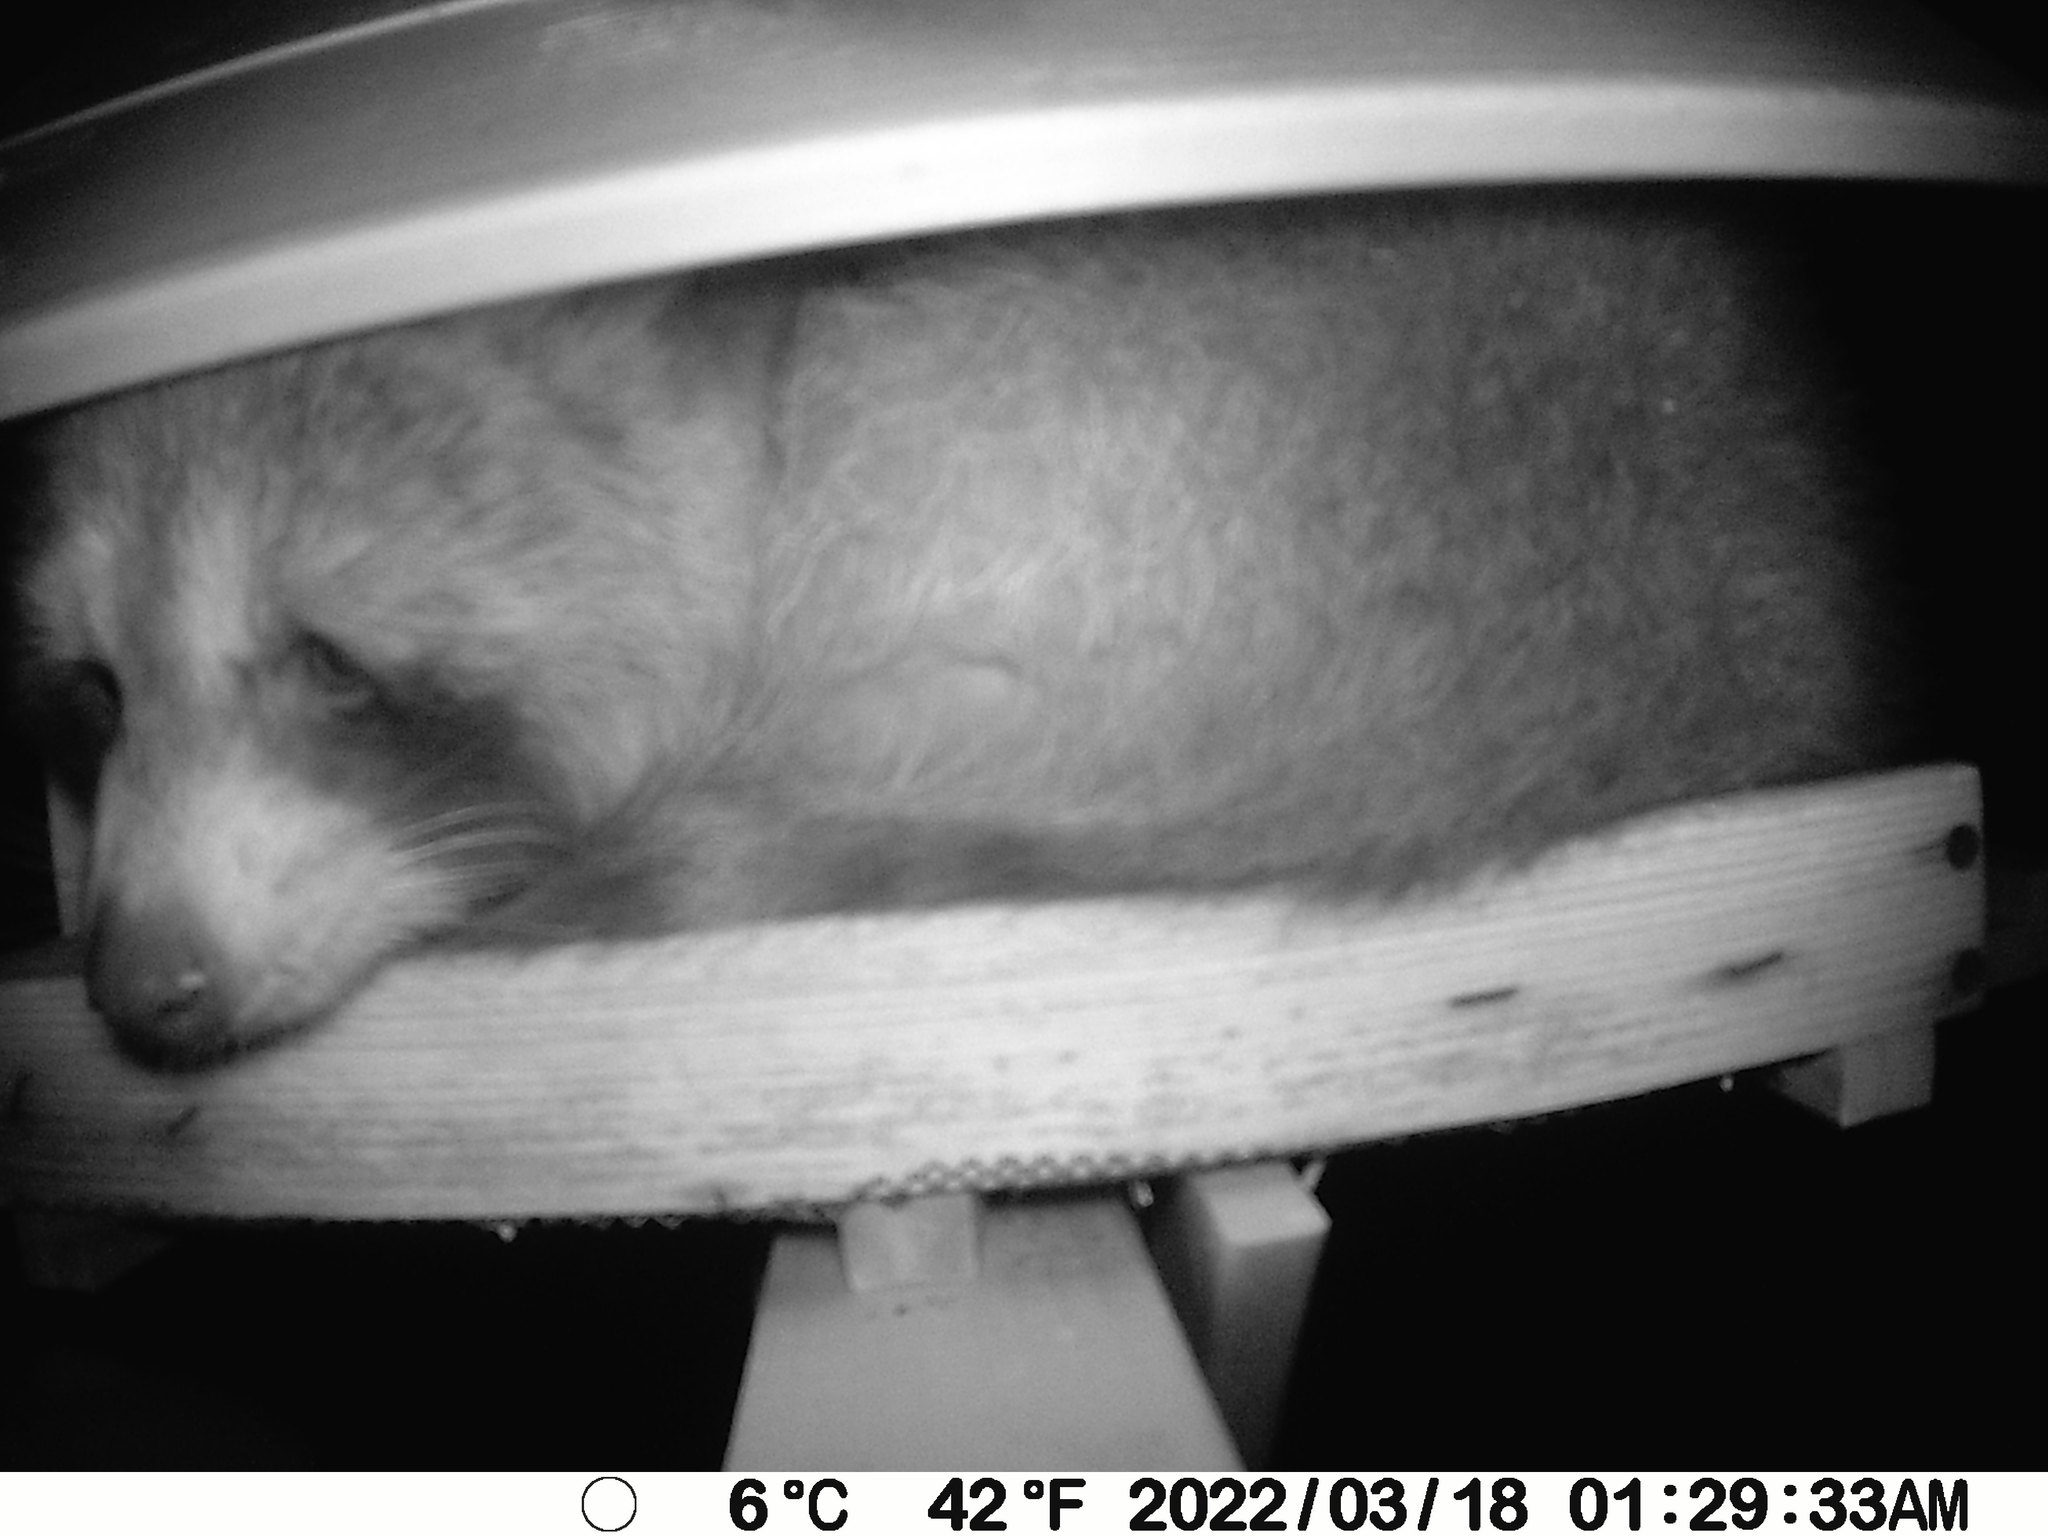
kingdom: Animalia
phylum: Chordata
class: Mammalia
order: Carnivora
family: Procyonidae
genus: Procyon
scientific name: Procyon lotor
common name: Raccoon
